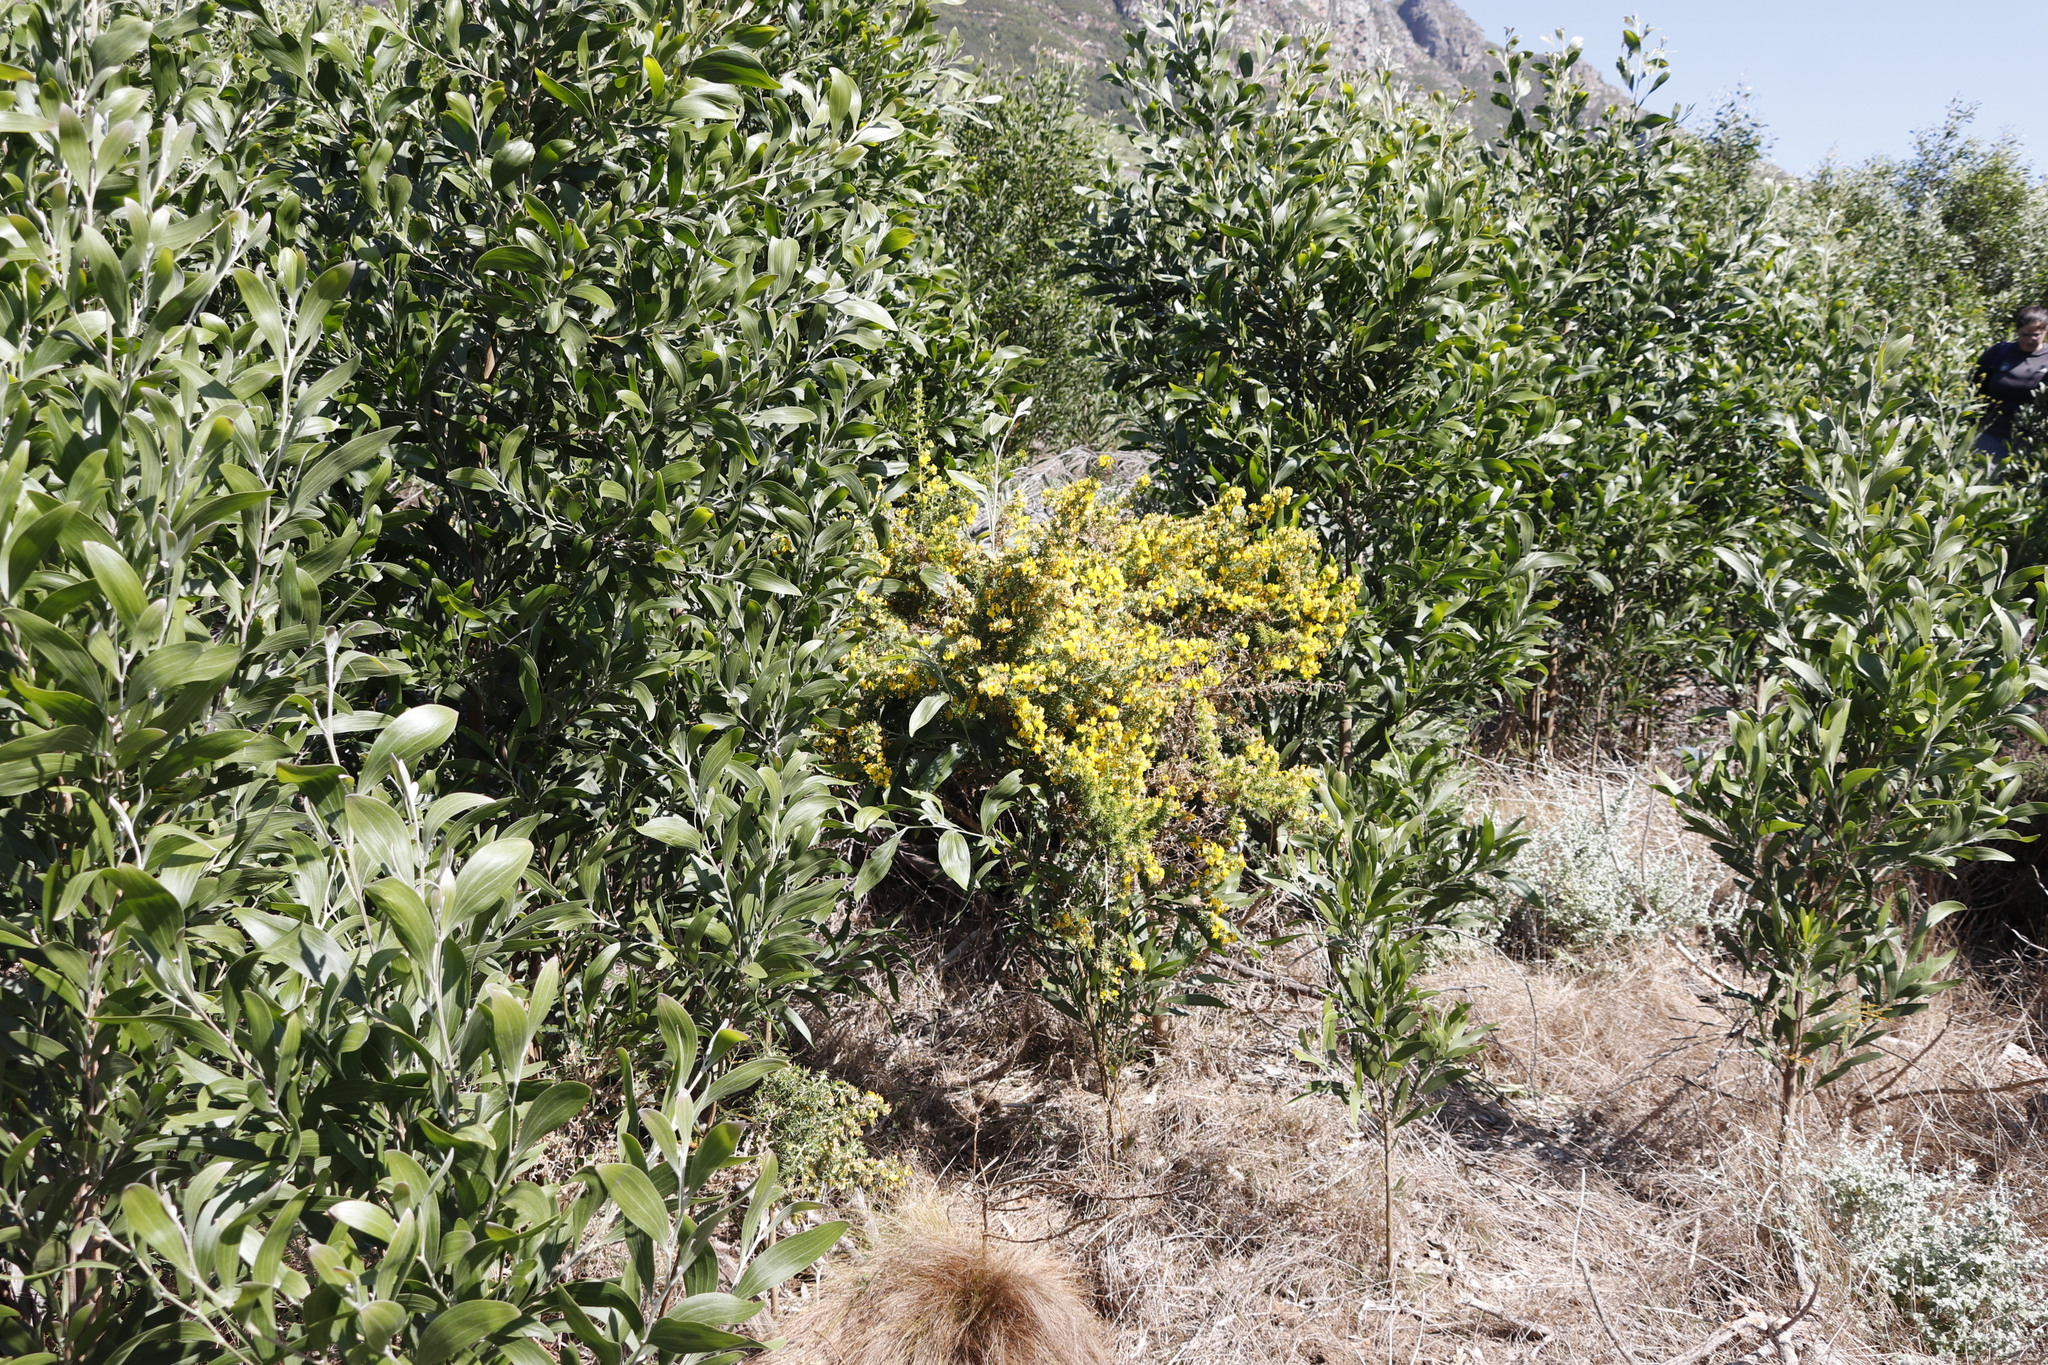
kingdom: Plantae
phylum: Tracheophyta
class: Magnoliopsida
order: Fabales
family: Fabaceae
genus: Acacia
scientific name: Acacia melanoxylon
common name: Blackwood
